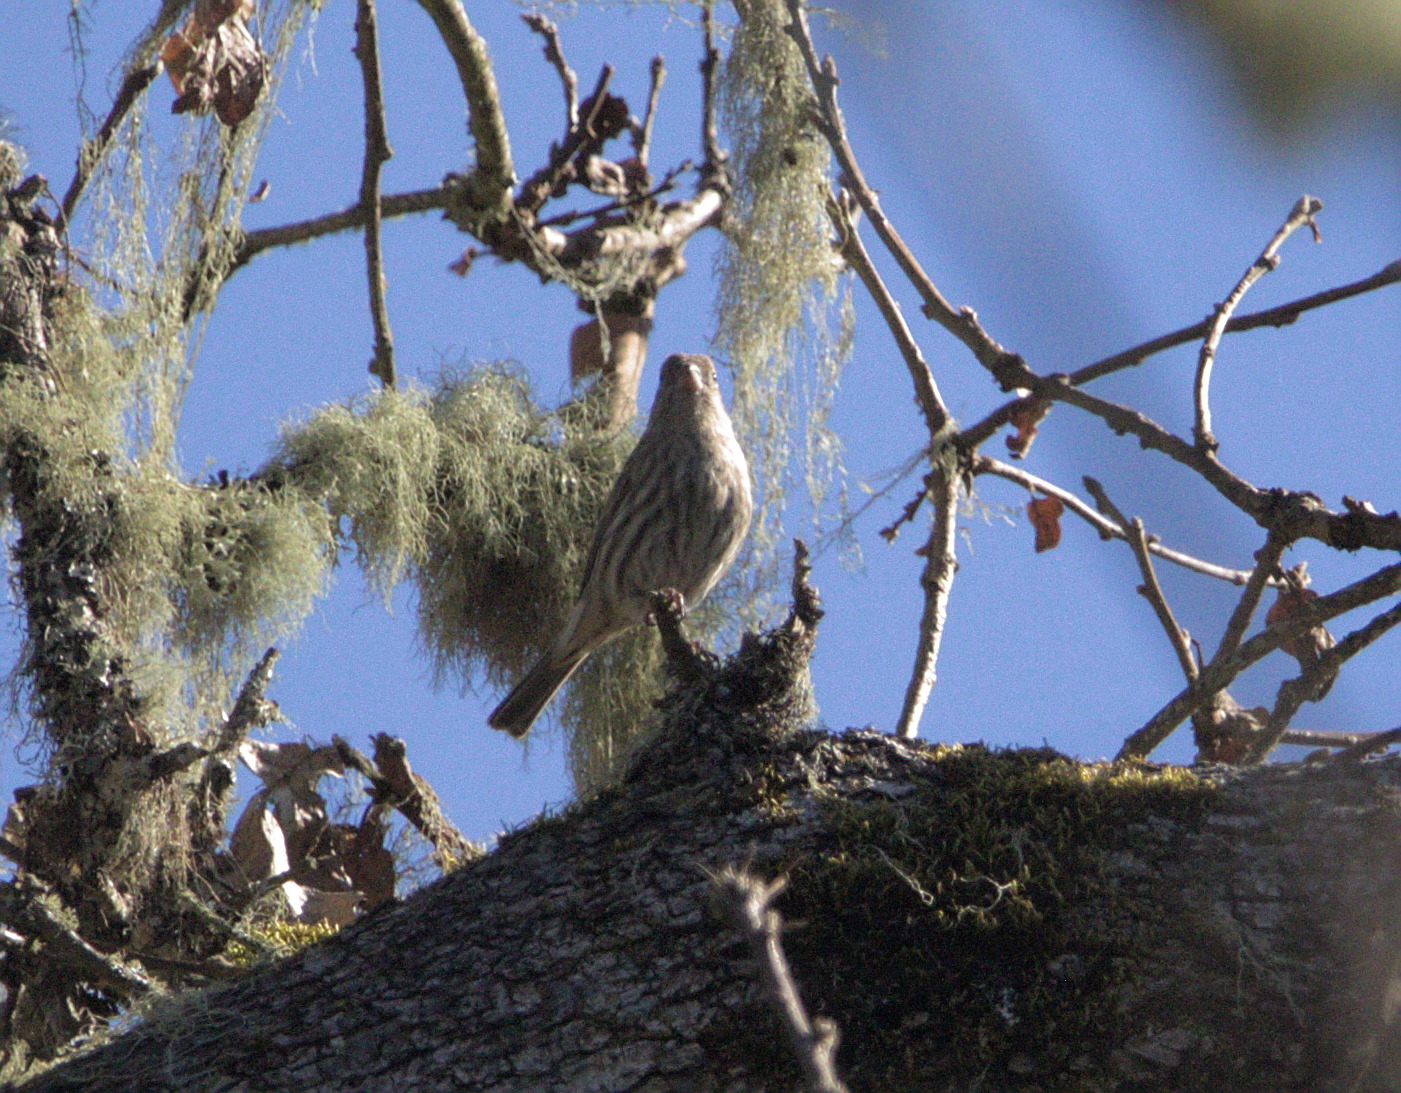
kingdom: Animalia
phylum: Chordata
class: Aves
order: Passeriformes
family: Fringillidae
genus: Haemorhous
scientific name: Haemorhous mexicanus
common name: House finch
